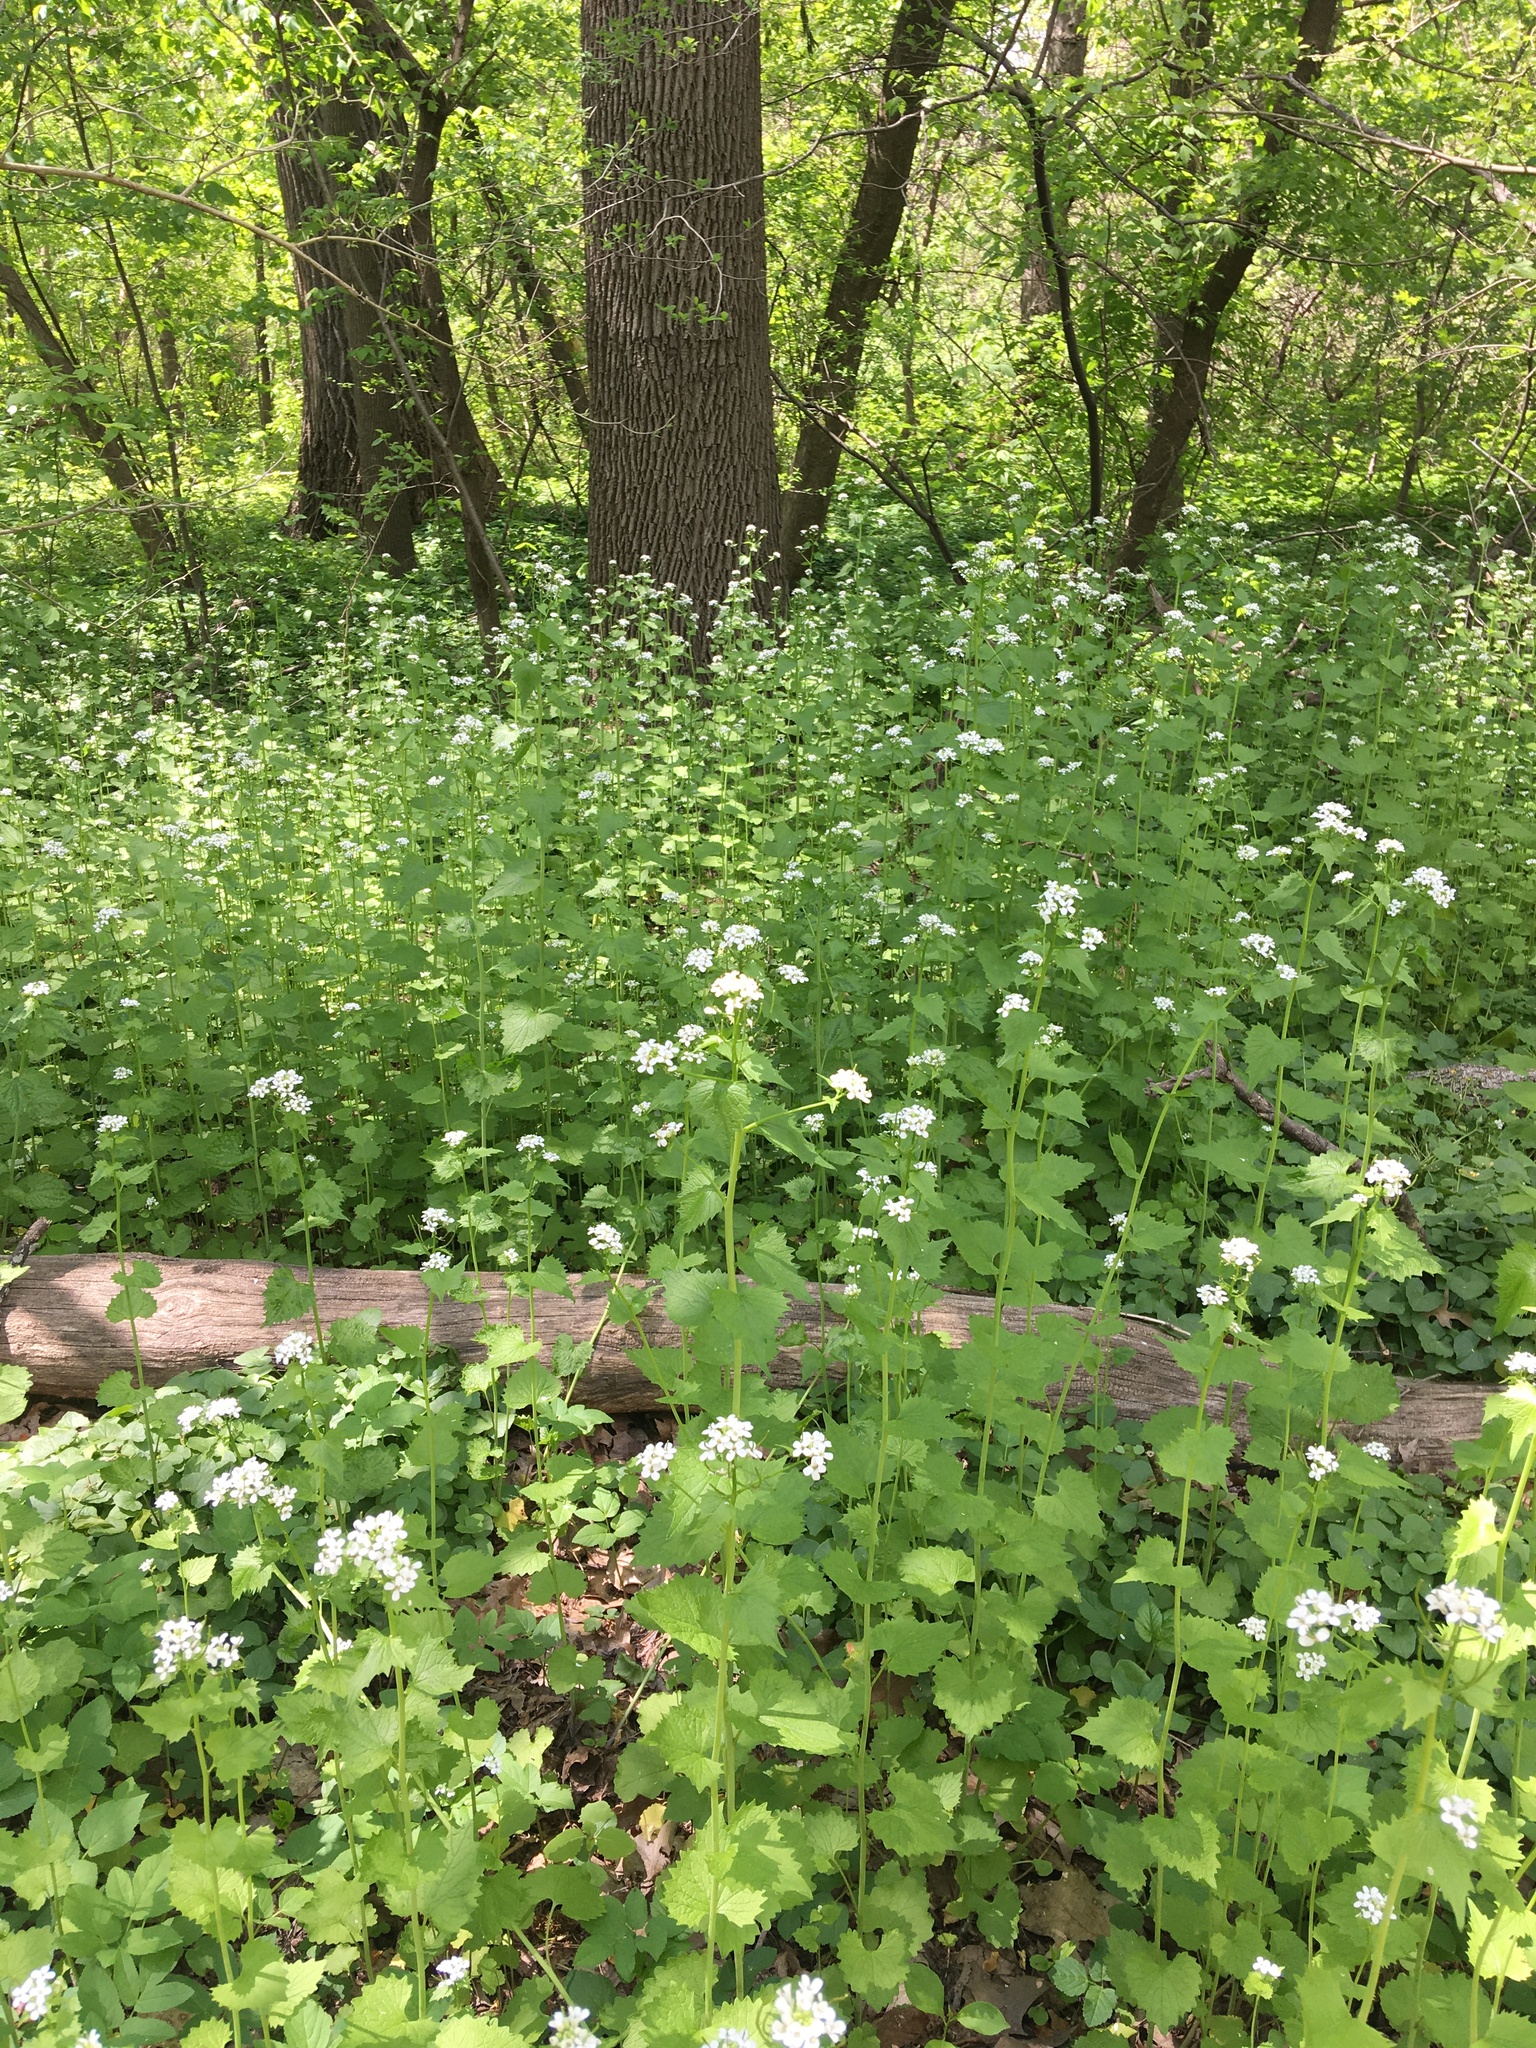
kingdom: Plantae
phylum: Tracheophyta
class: Magnoliopsida
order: Brassicales
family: Brassicaceae
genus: Alliaria
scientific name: Alliaria petiolata
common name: Garlic mustard
